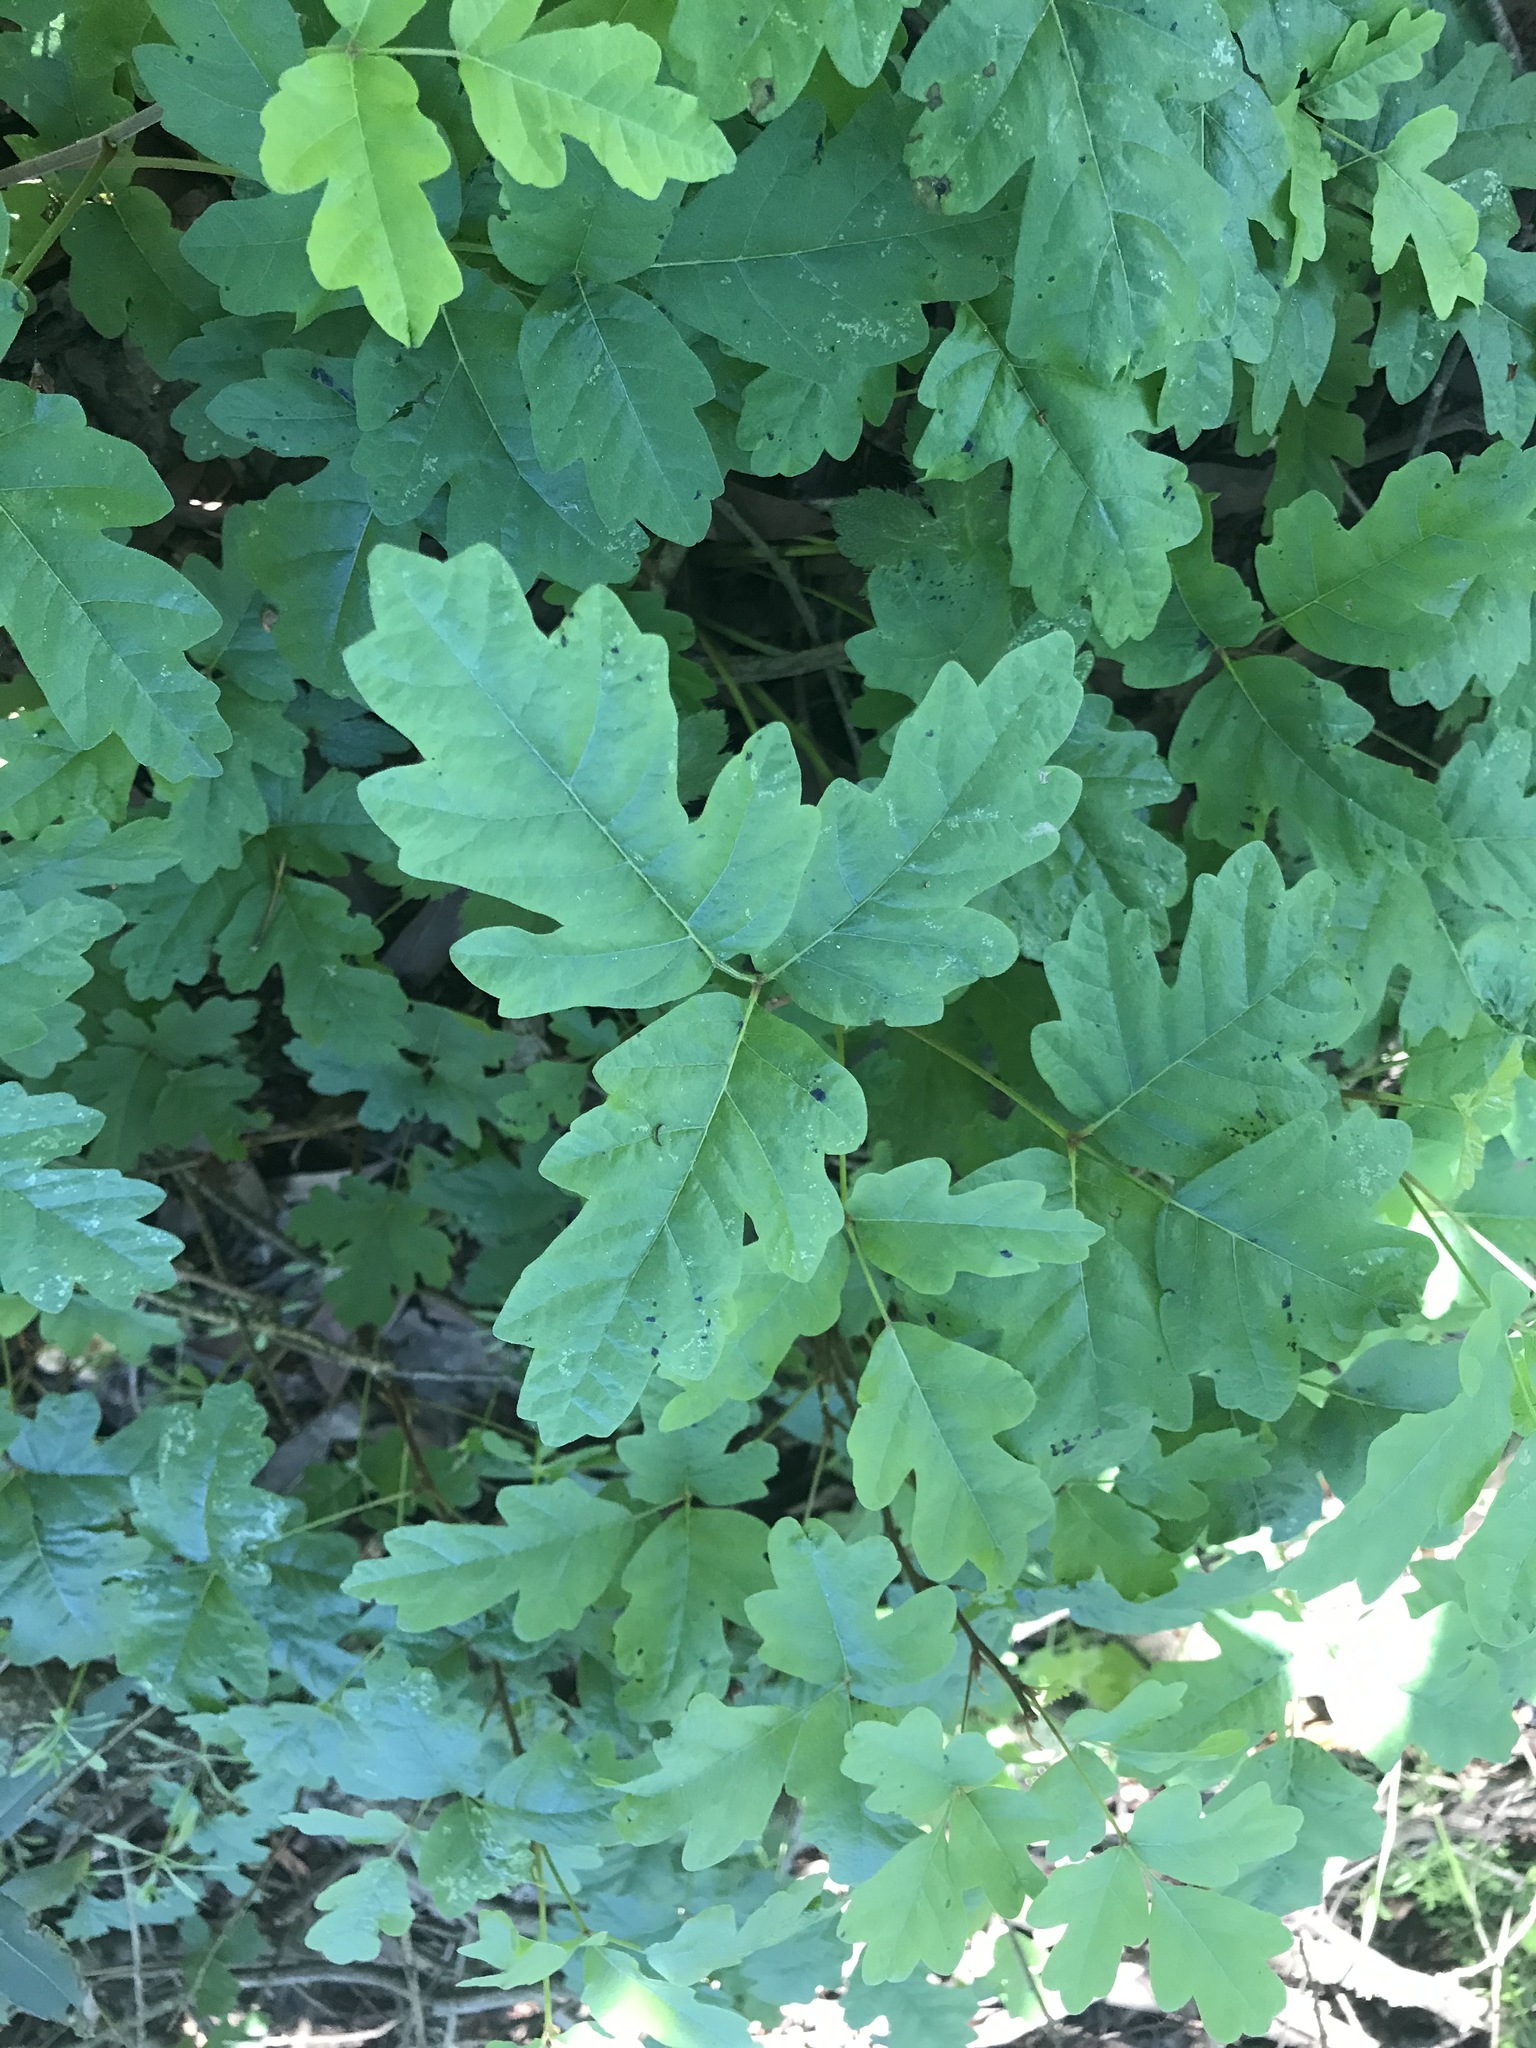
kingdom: Plantae
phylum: Tracheophyta
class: Magnoliopsida
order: Sapindales
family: Anacardiaceae
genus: Toxicodendron
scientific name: Toxicodendron diversilobum
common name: Pacific poison-oak
